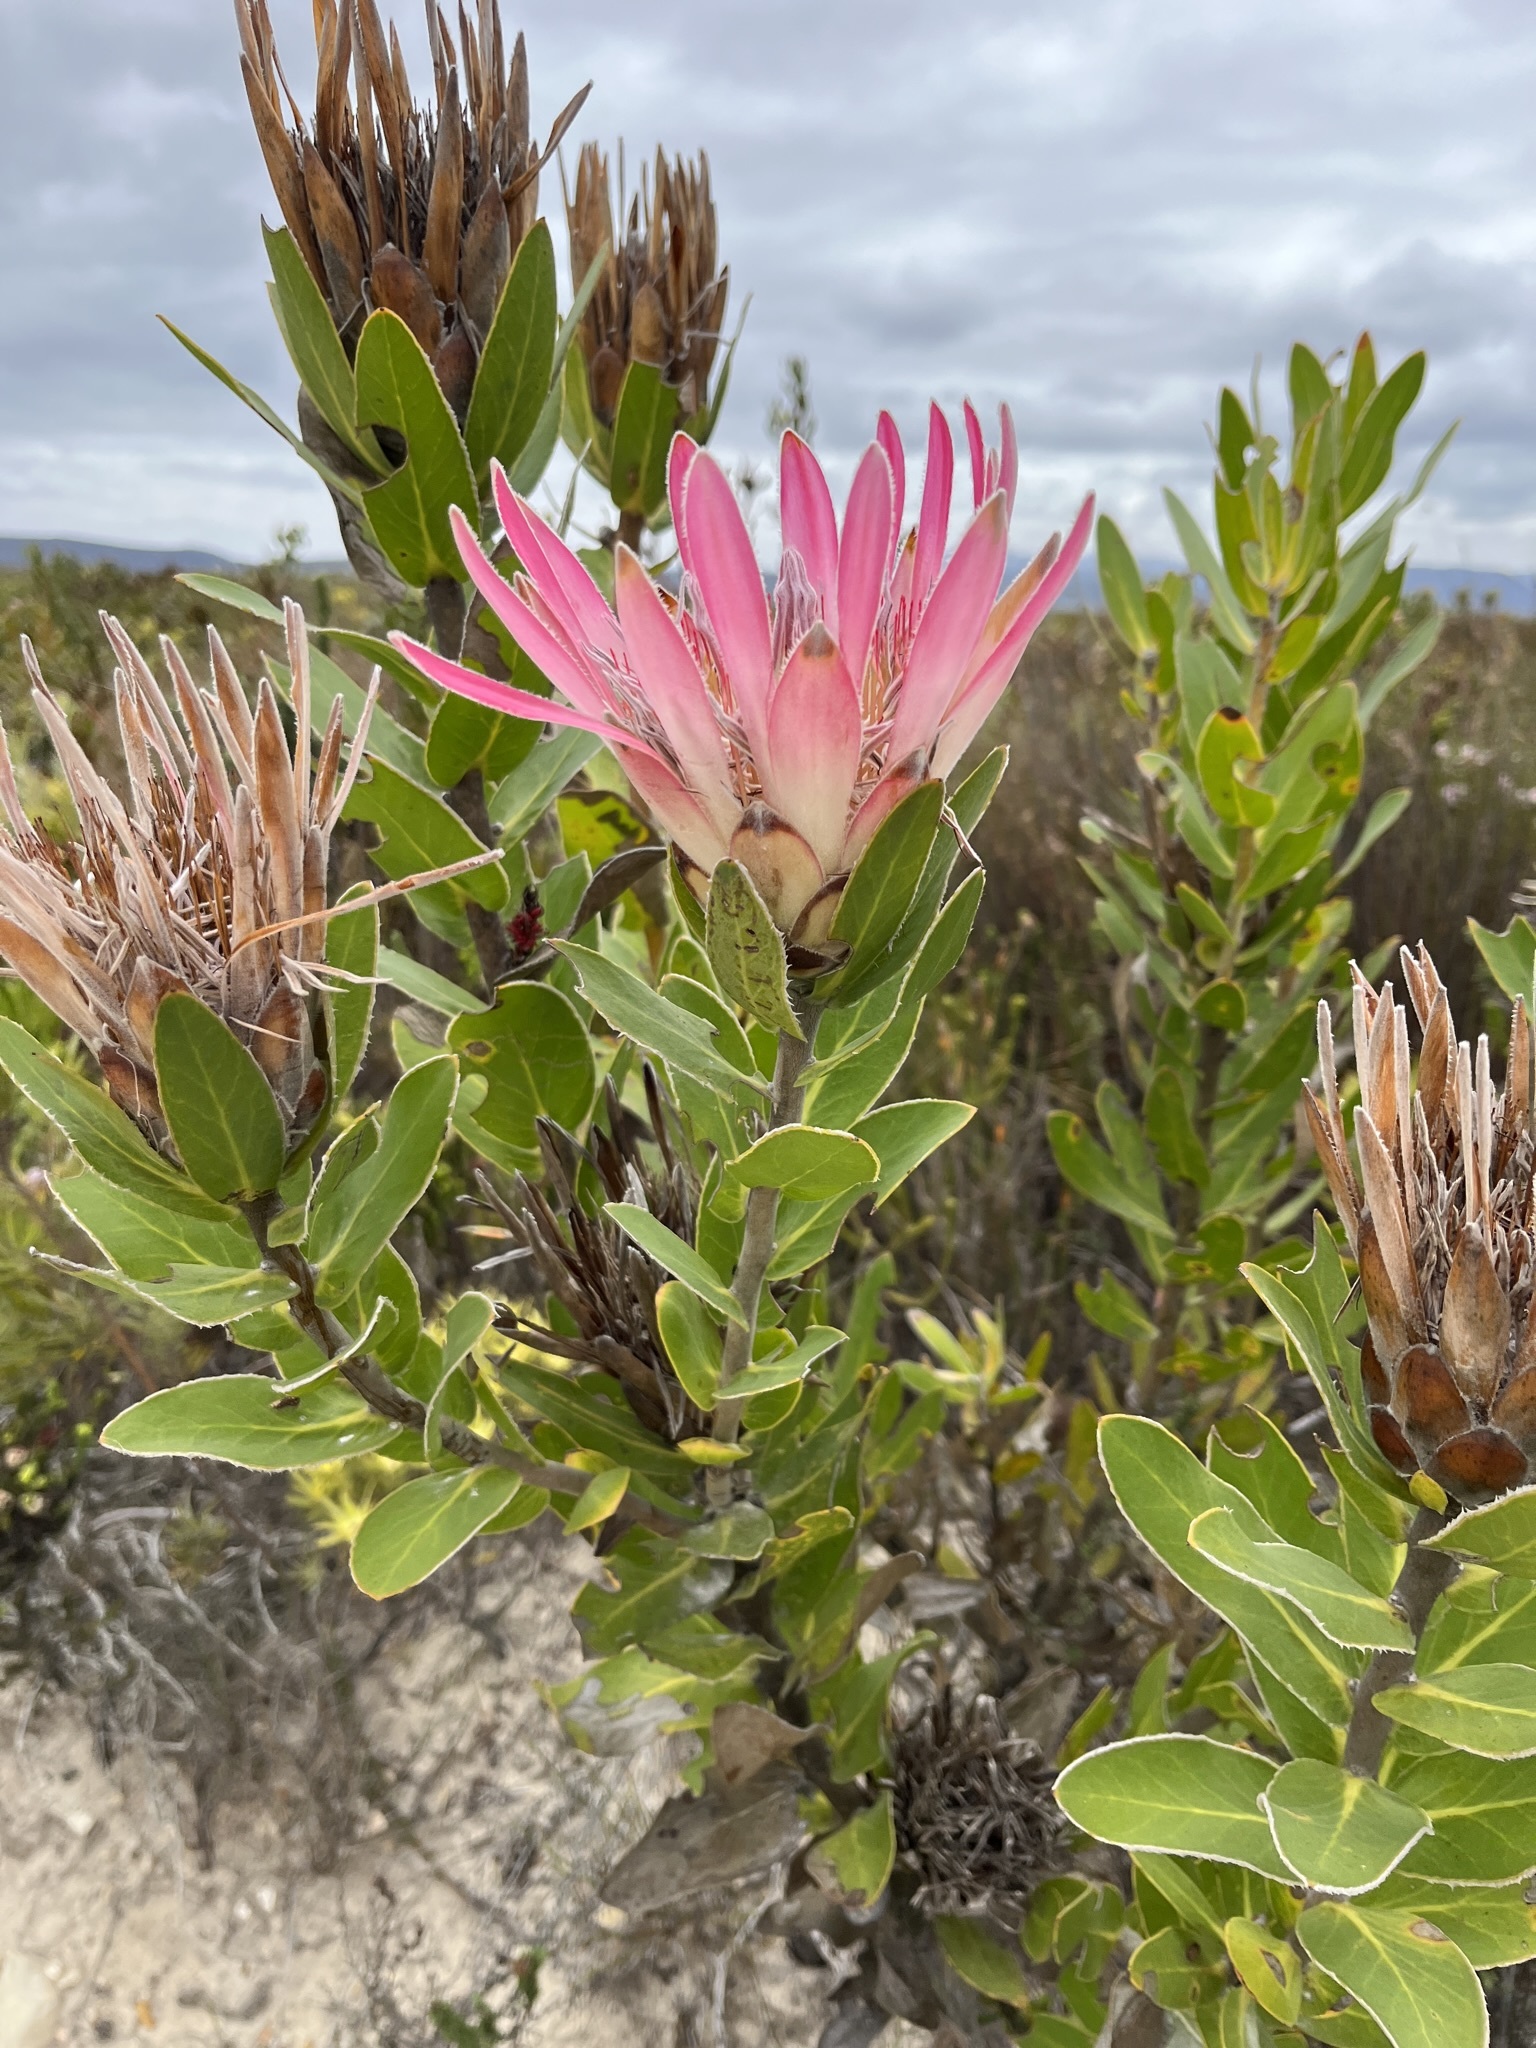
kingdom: Plantae
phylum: Tracheophyta
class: Magnoliopsida
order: Proteales
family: Proteaceae
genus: Protea
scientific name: Protea compacta
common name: Bot river protea
